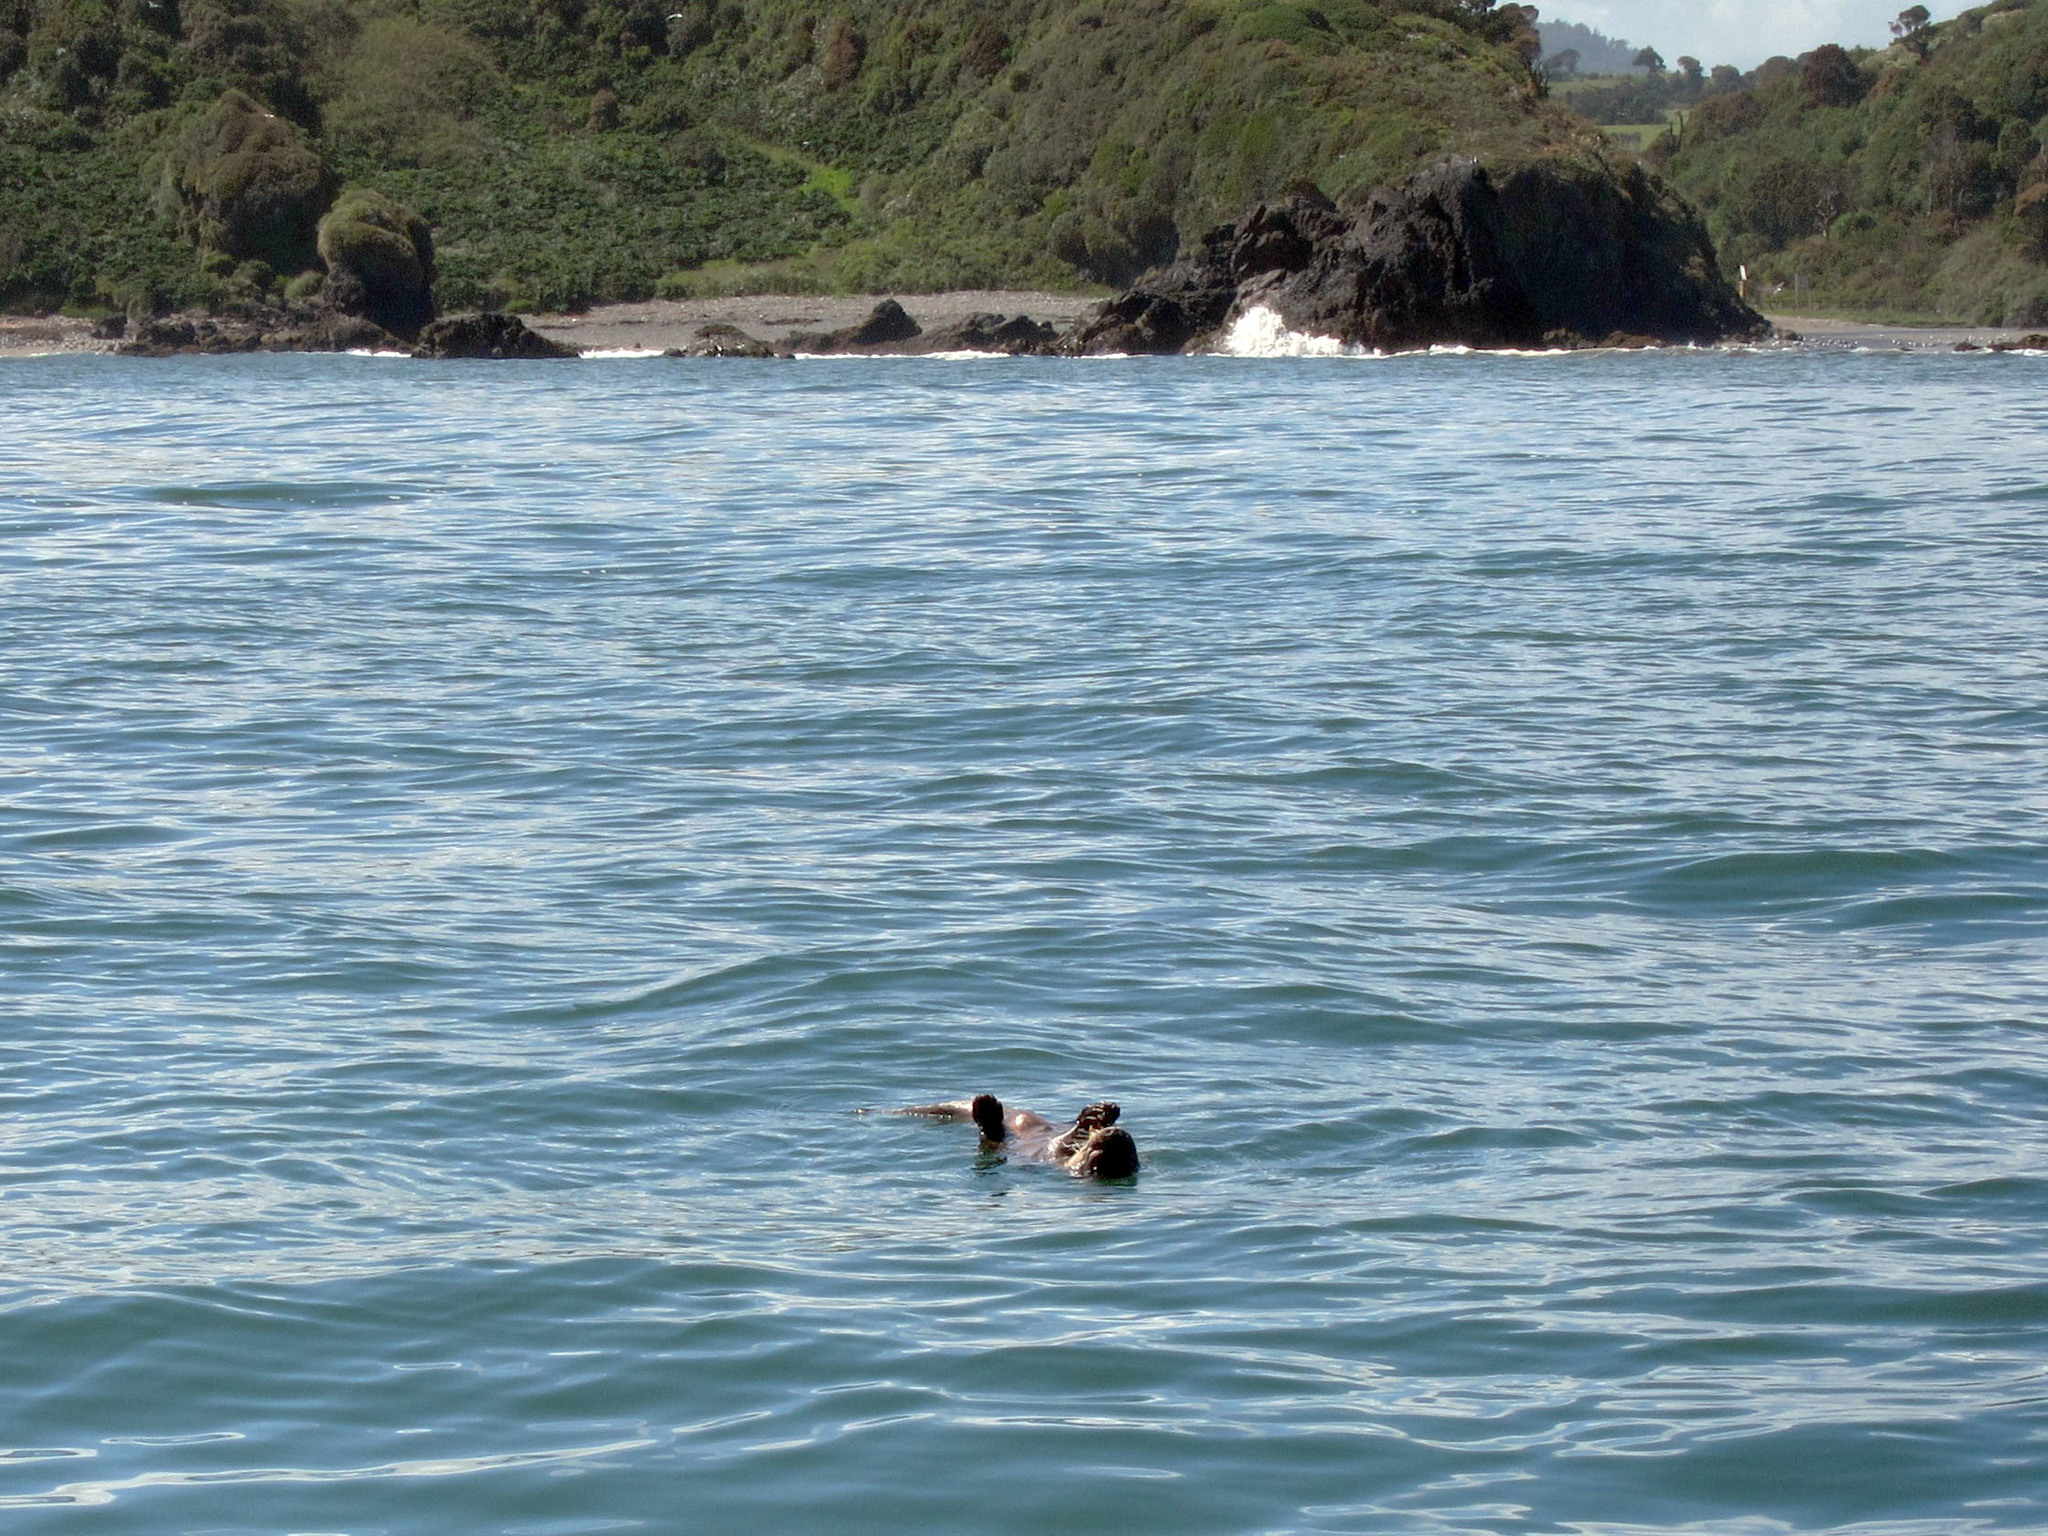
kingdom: Animalia
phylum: Chordata
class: Mammalia
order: Carnivora
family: Mustelidae
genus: Lontra
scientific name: Lontra felina
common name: Marine otter
